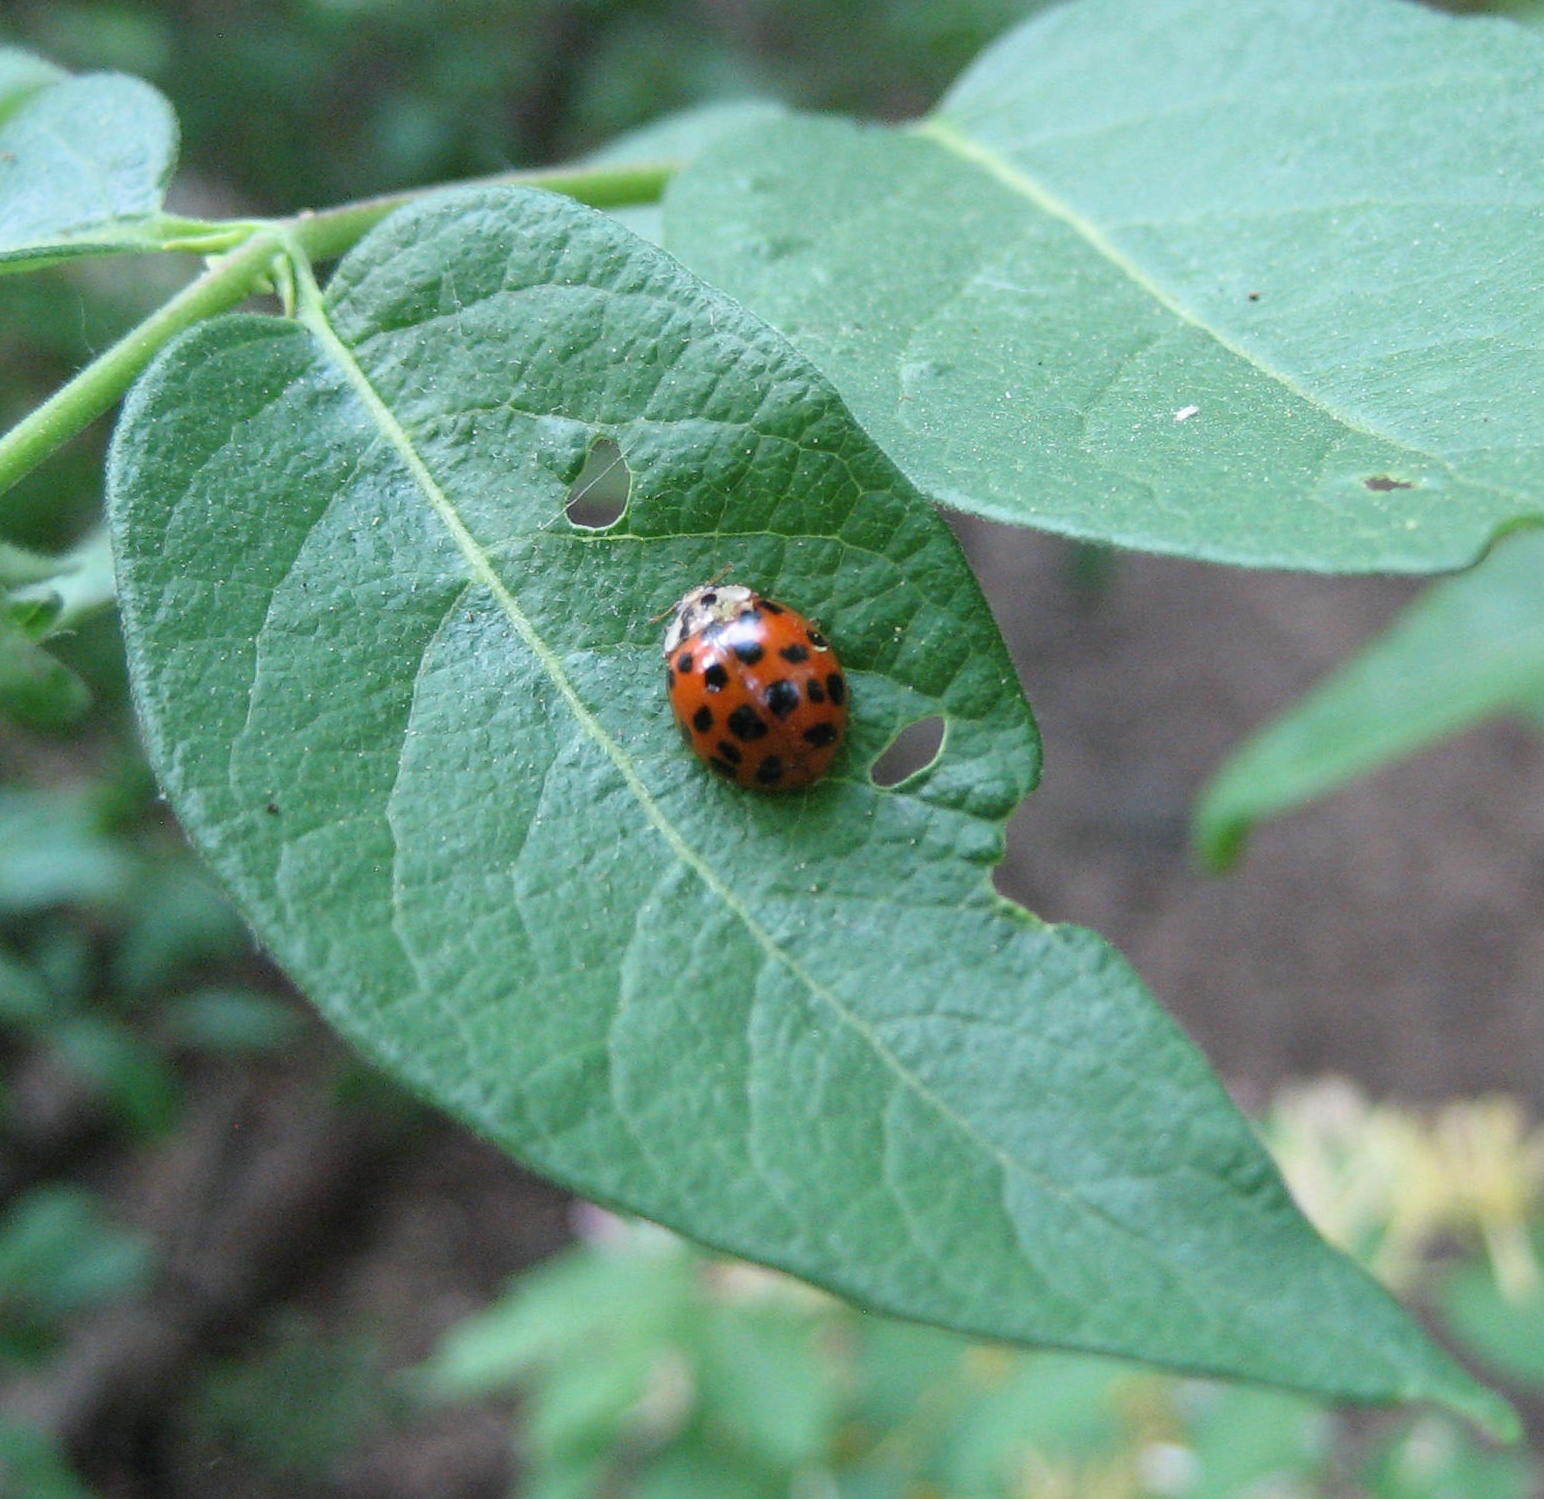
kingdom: Animalia
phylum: Arthropoda
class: Insecta
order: Coleoptera
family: Coccinellidae
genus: Harmonia
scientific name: Harmonia axyridis
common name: Harlequin ladybird
